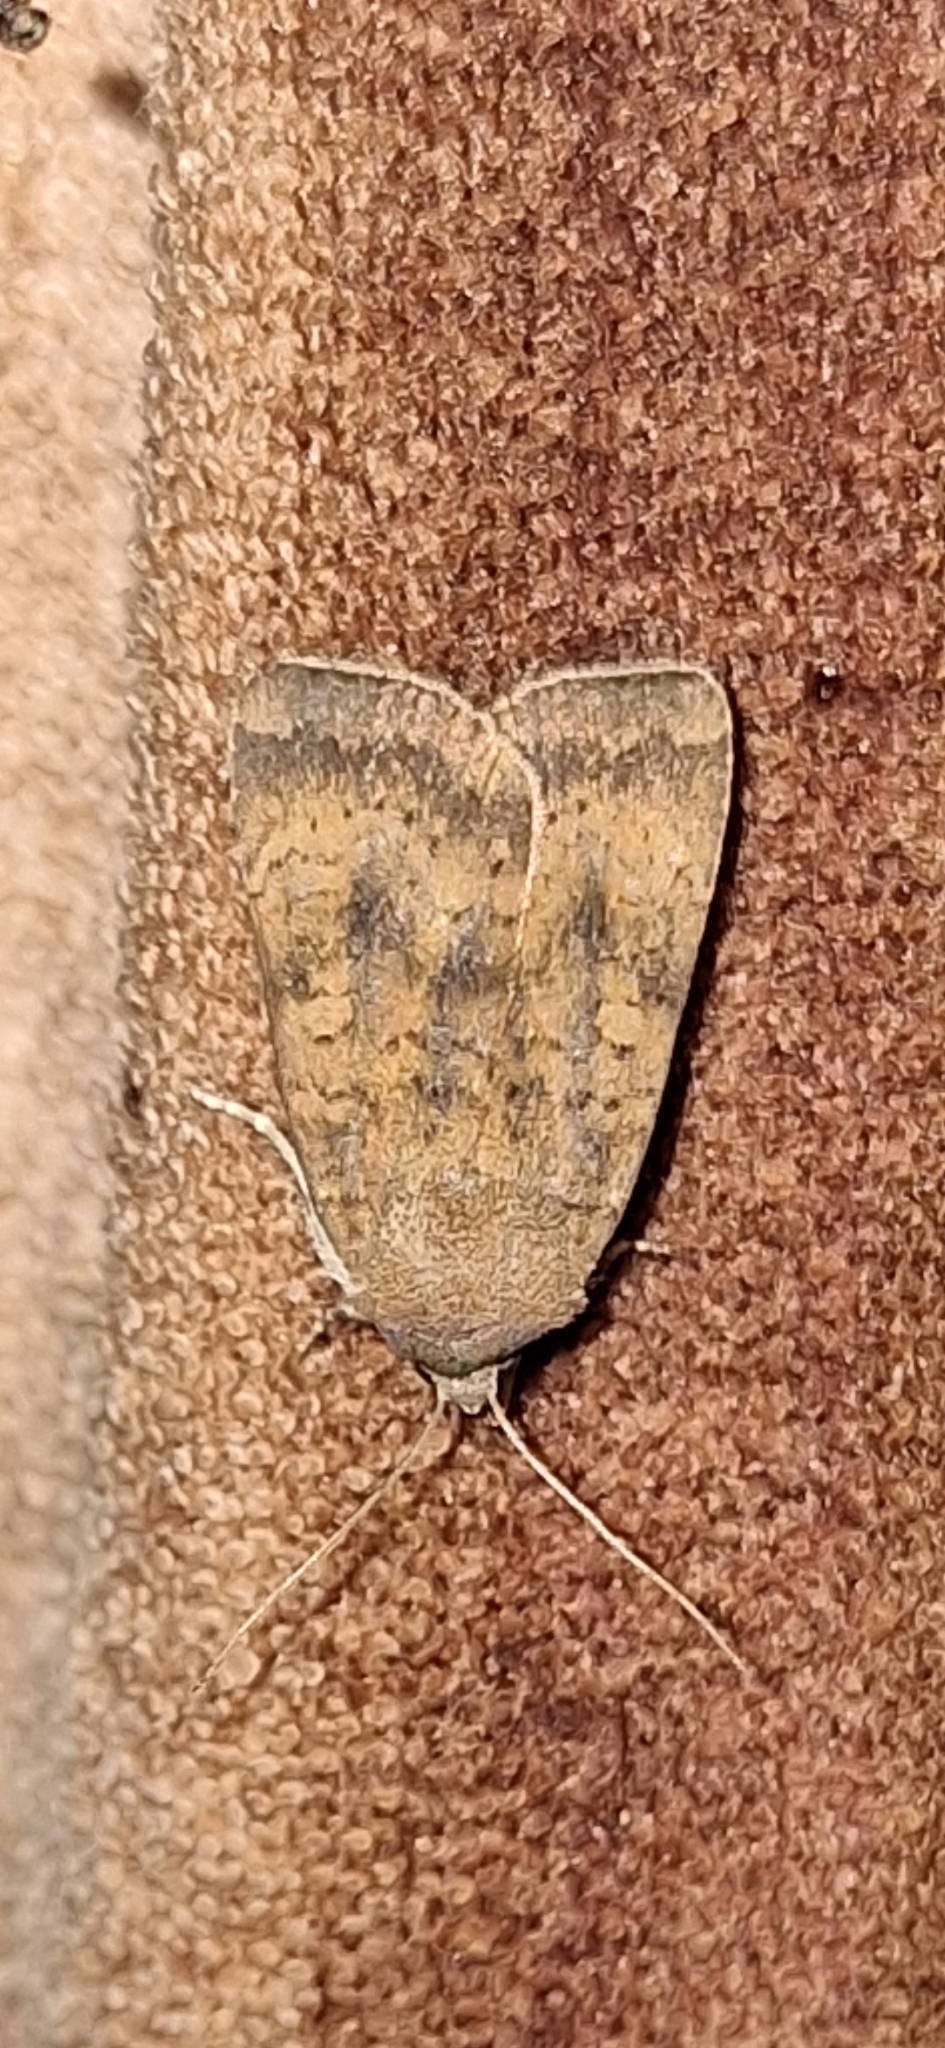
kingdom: Animalia
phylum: Arthropoda
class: Insecta
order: Lepidoptera
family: Noctuidae
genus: Noctua
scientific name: Noctua interjecta
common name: Least yellow underwing
